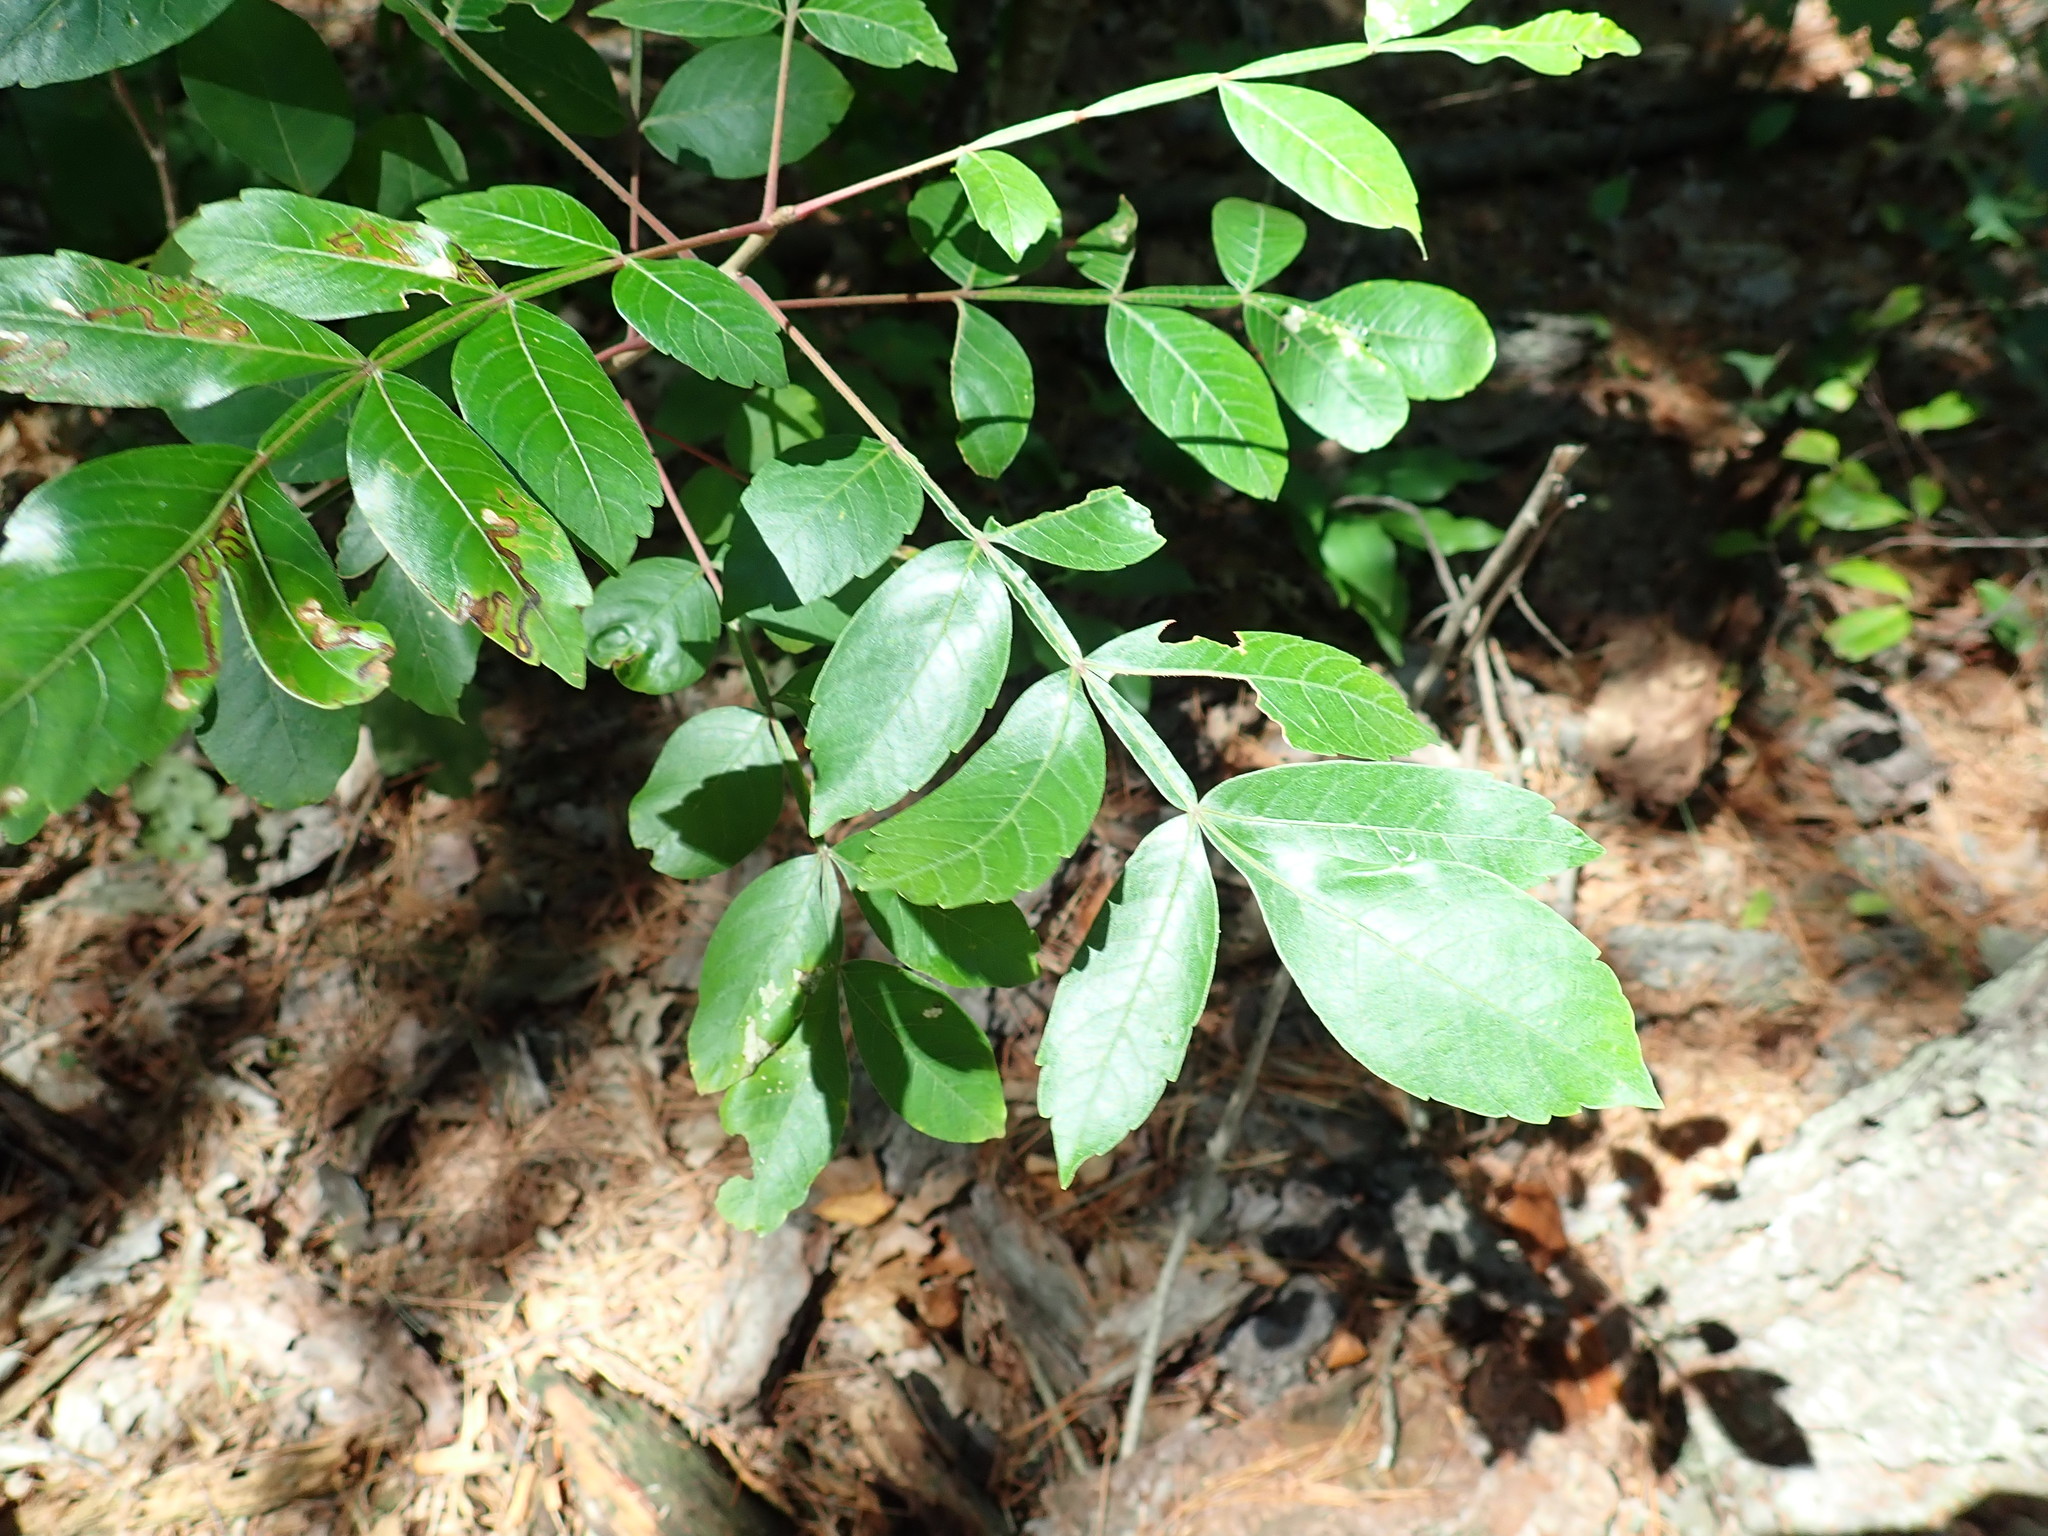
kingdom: Plantae
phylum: Tracheophyta
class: Magnoliopsida
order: Sapindales
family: Anacardiaceae
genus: Rhus
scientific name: Rhus copallina
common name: Shining sumac
